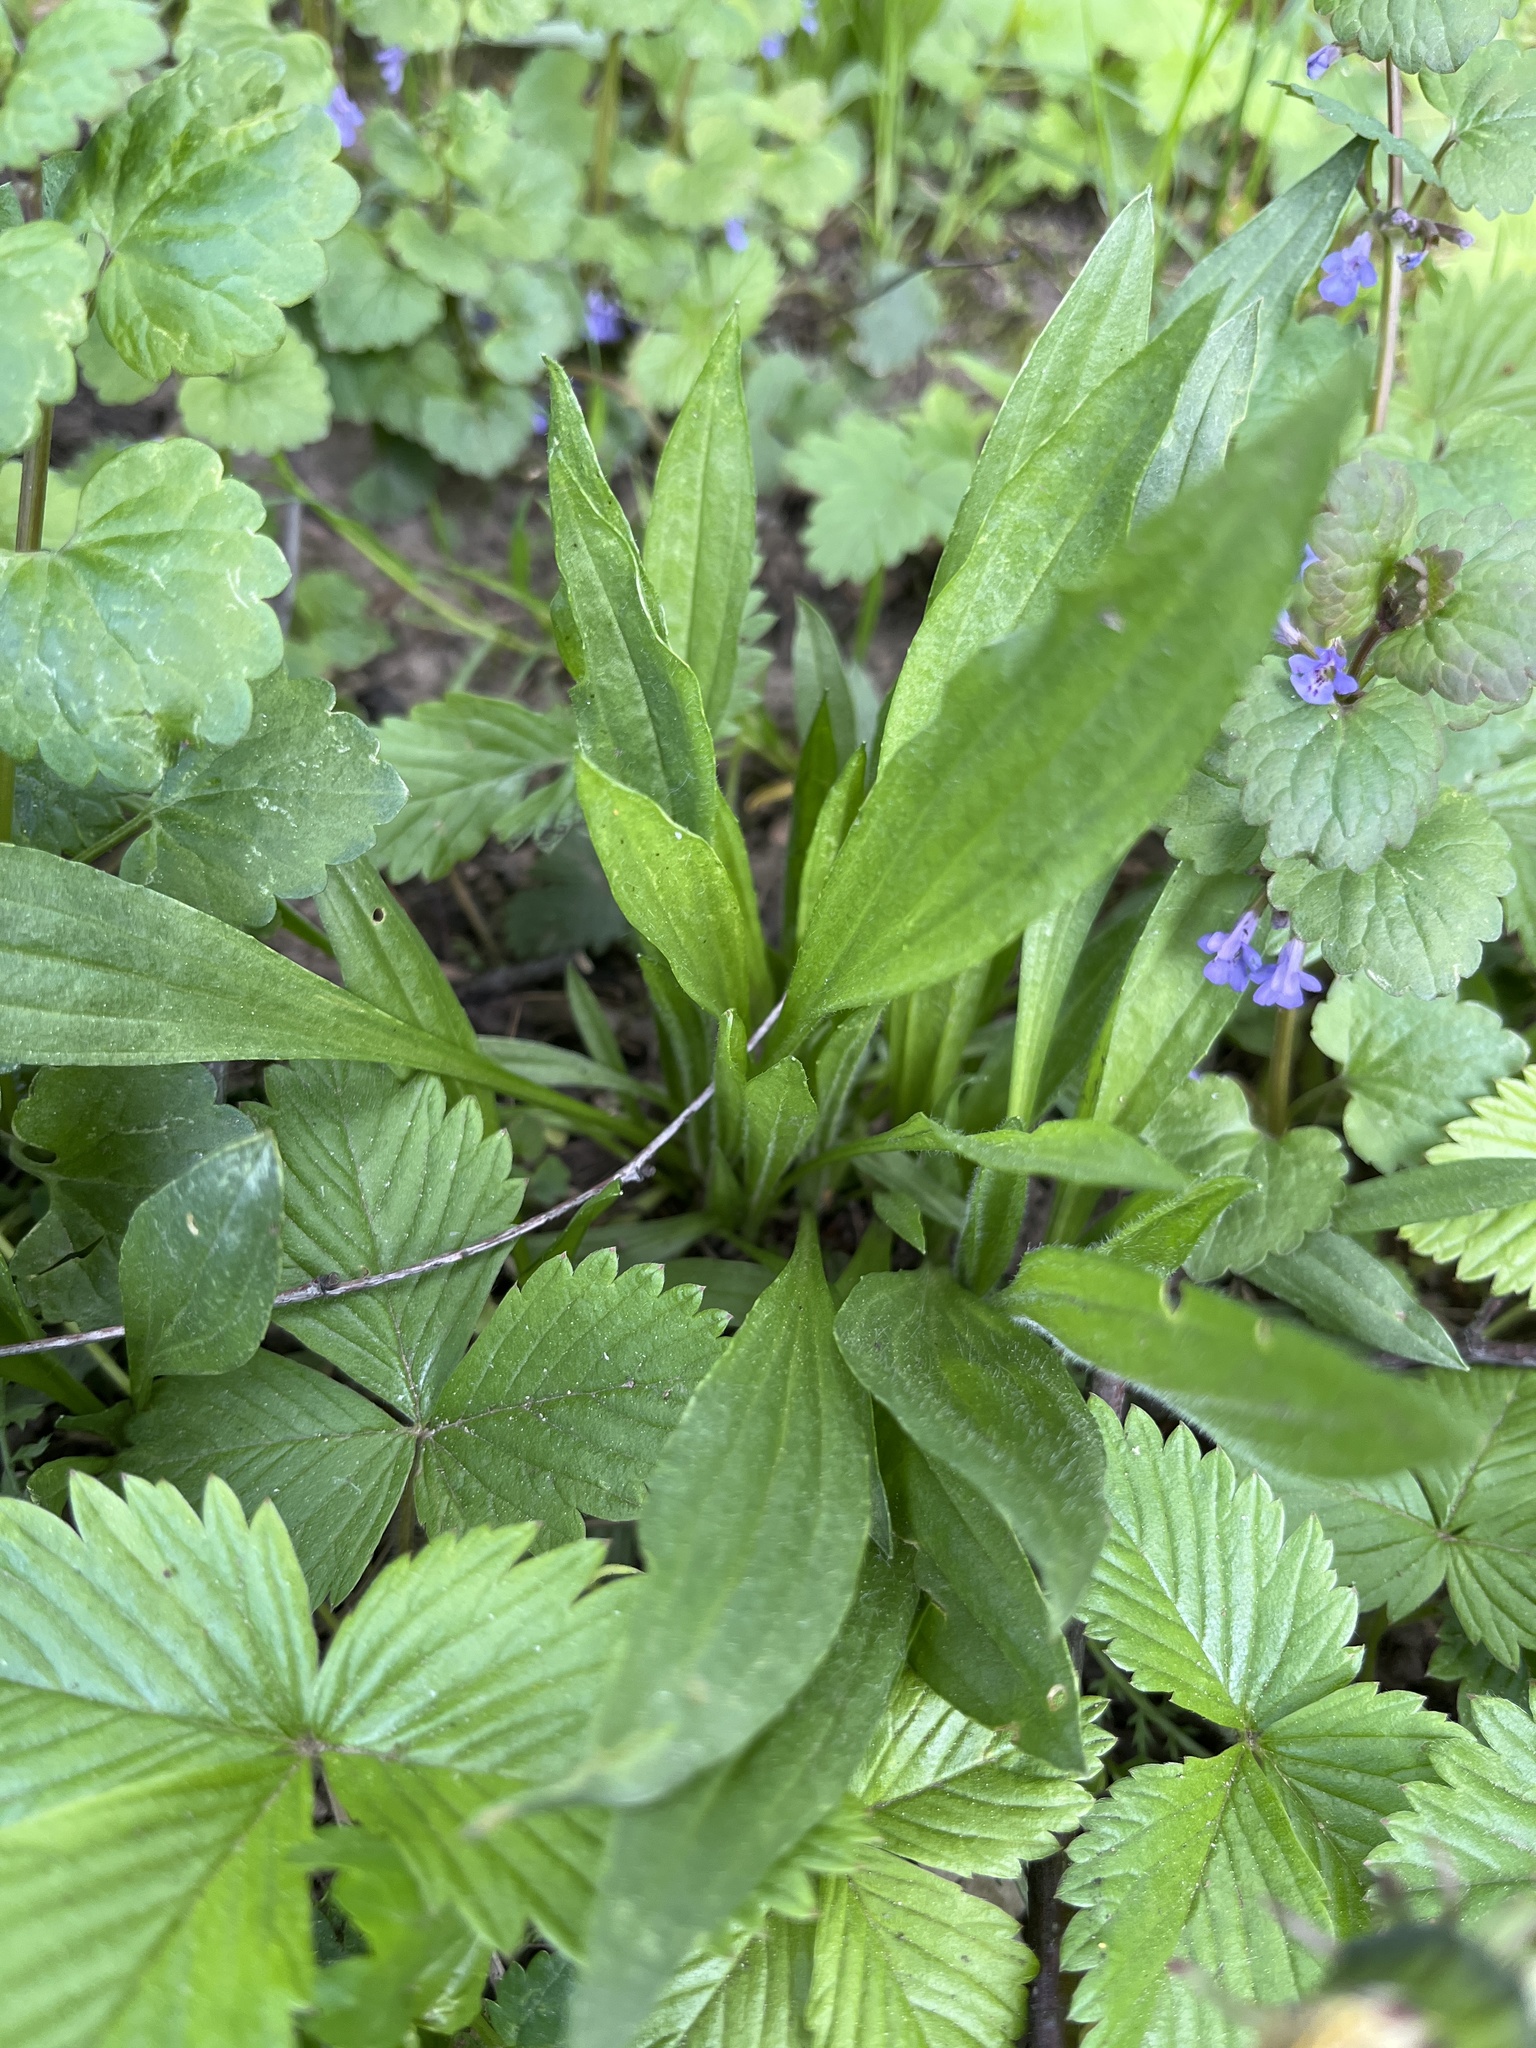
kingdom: Plantae
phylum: Tracheophyta
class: Magnoliopsida
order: Lamiales
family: Plantaginaceae
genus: Plantago
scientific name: Plantago lanceolata
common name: Ribwort plantain
